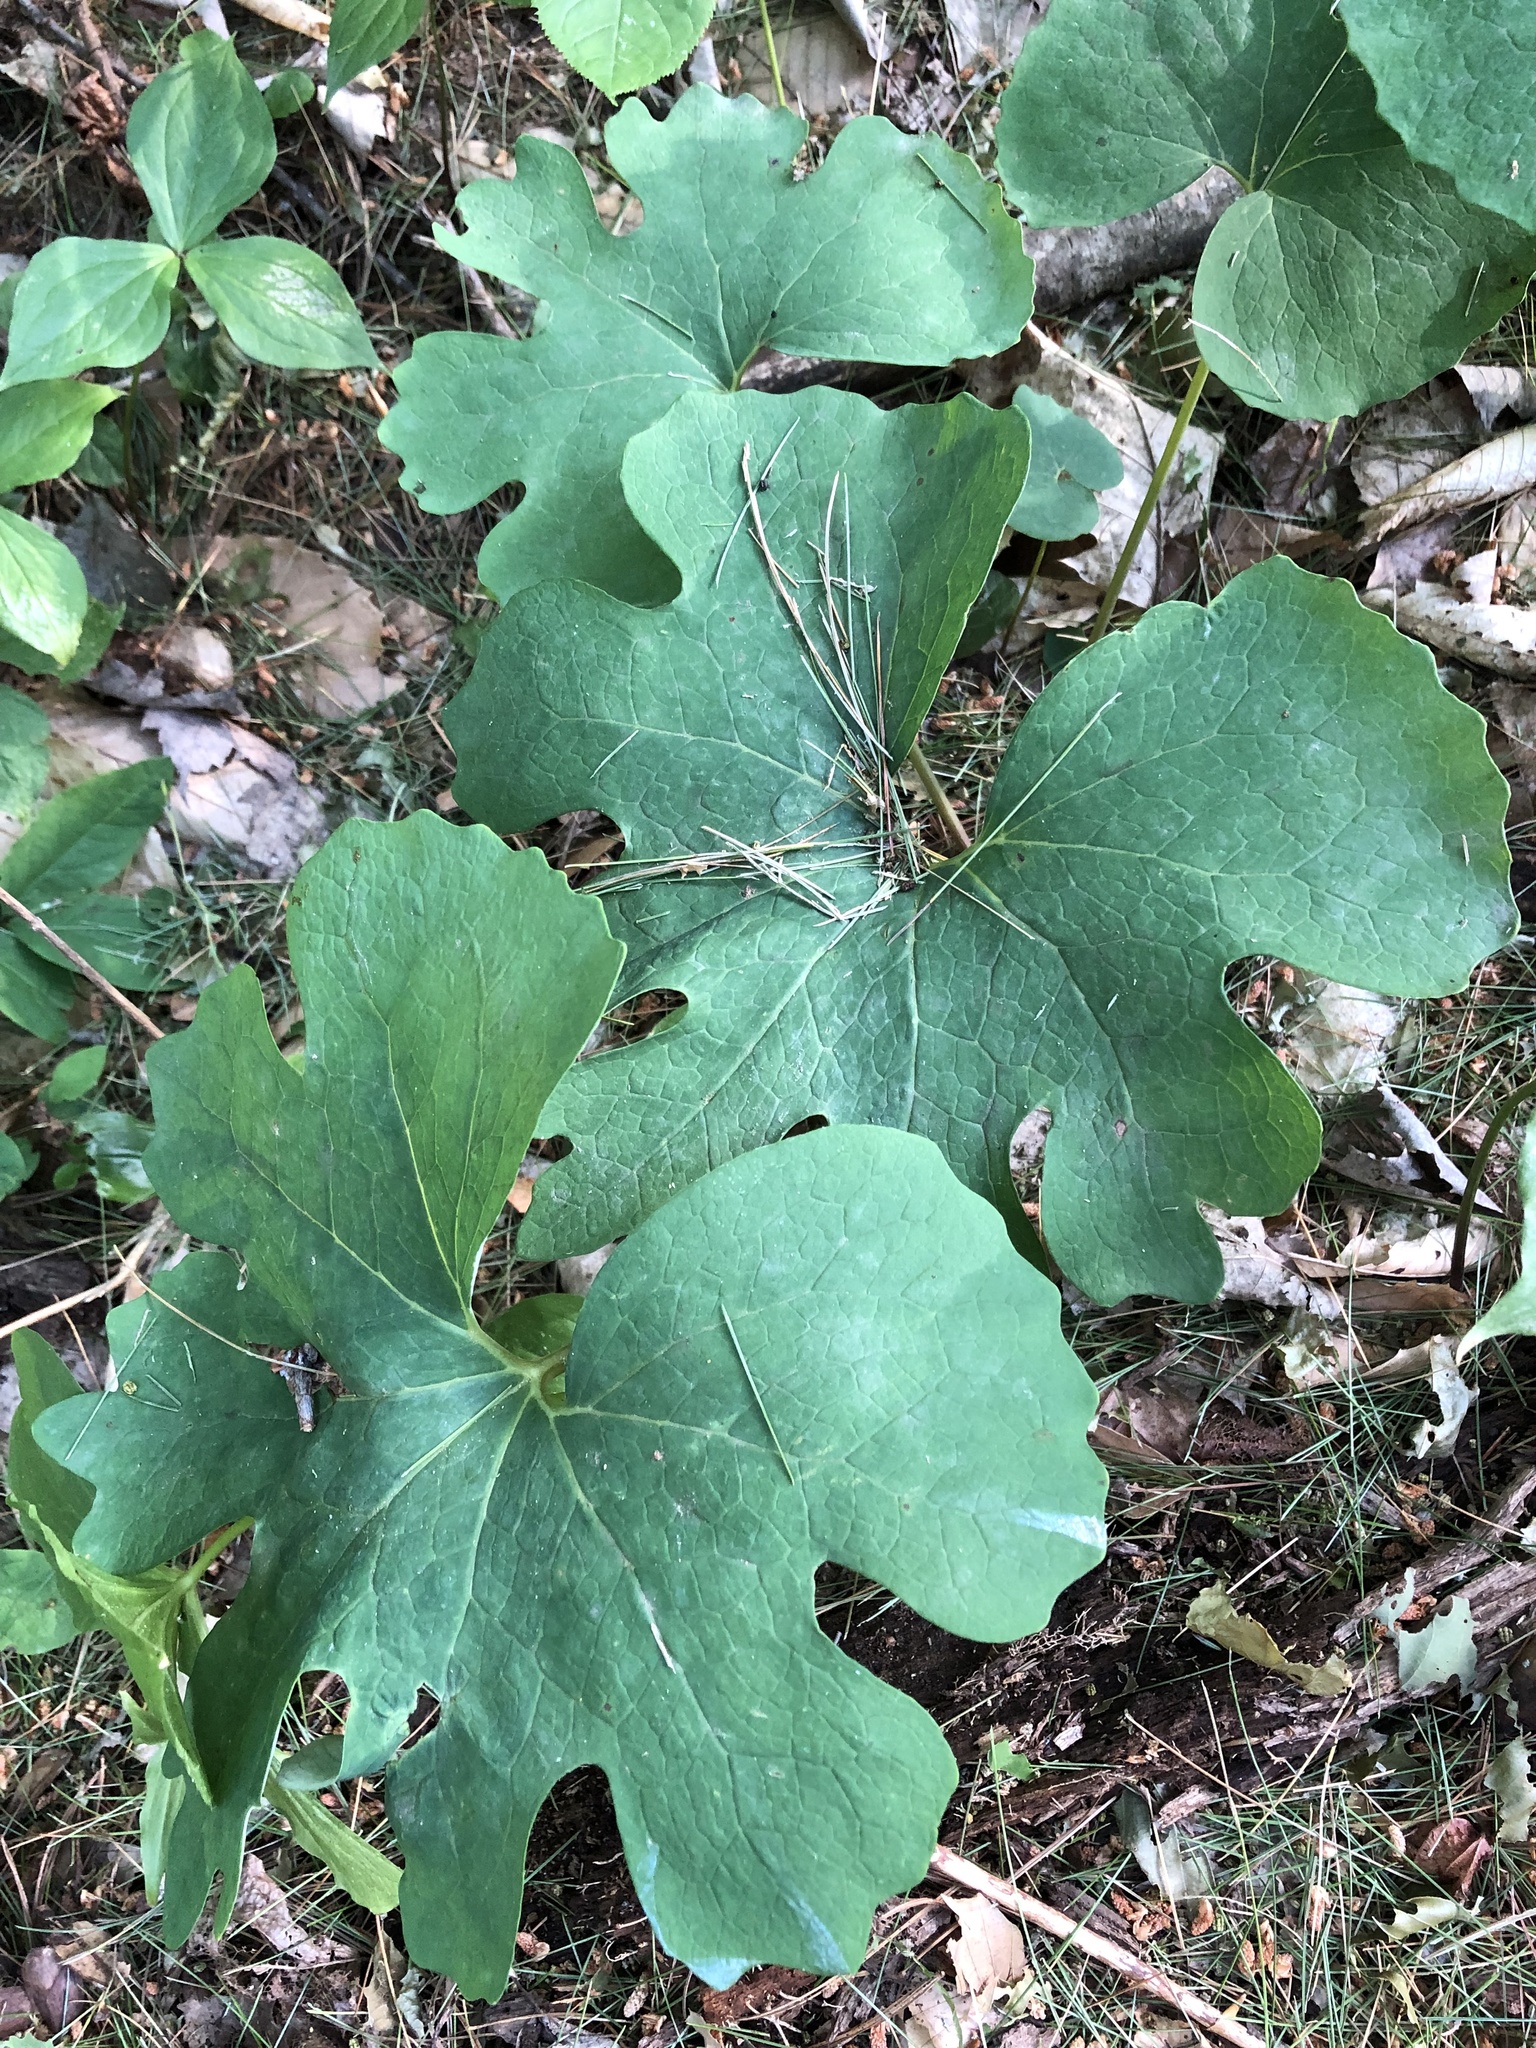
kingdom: Plantae
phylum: Tracheophyta
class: Magnoliopsida
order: Ranunculales
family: Papaveraceae
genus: Sanguinaria
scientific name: Sanguinaria canadensis
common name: Bloodroot
